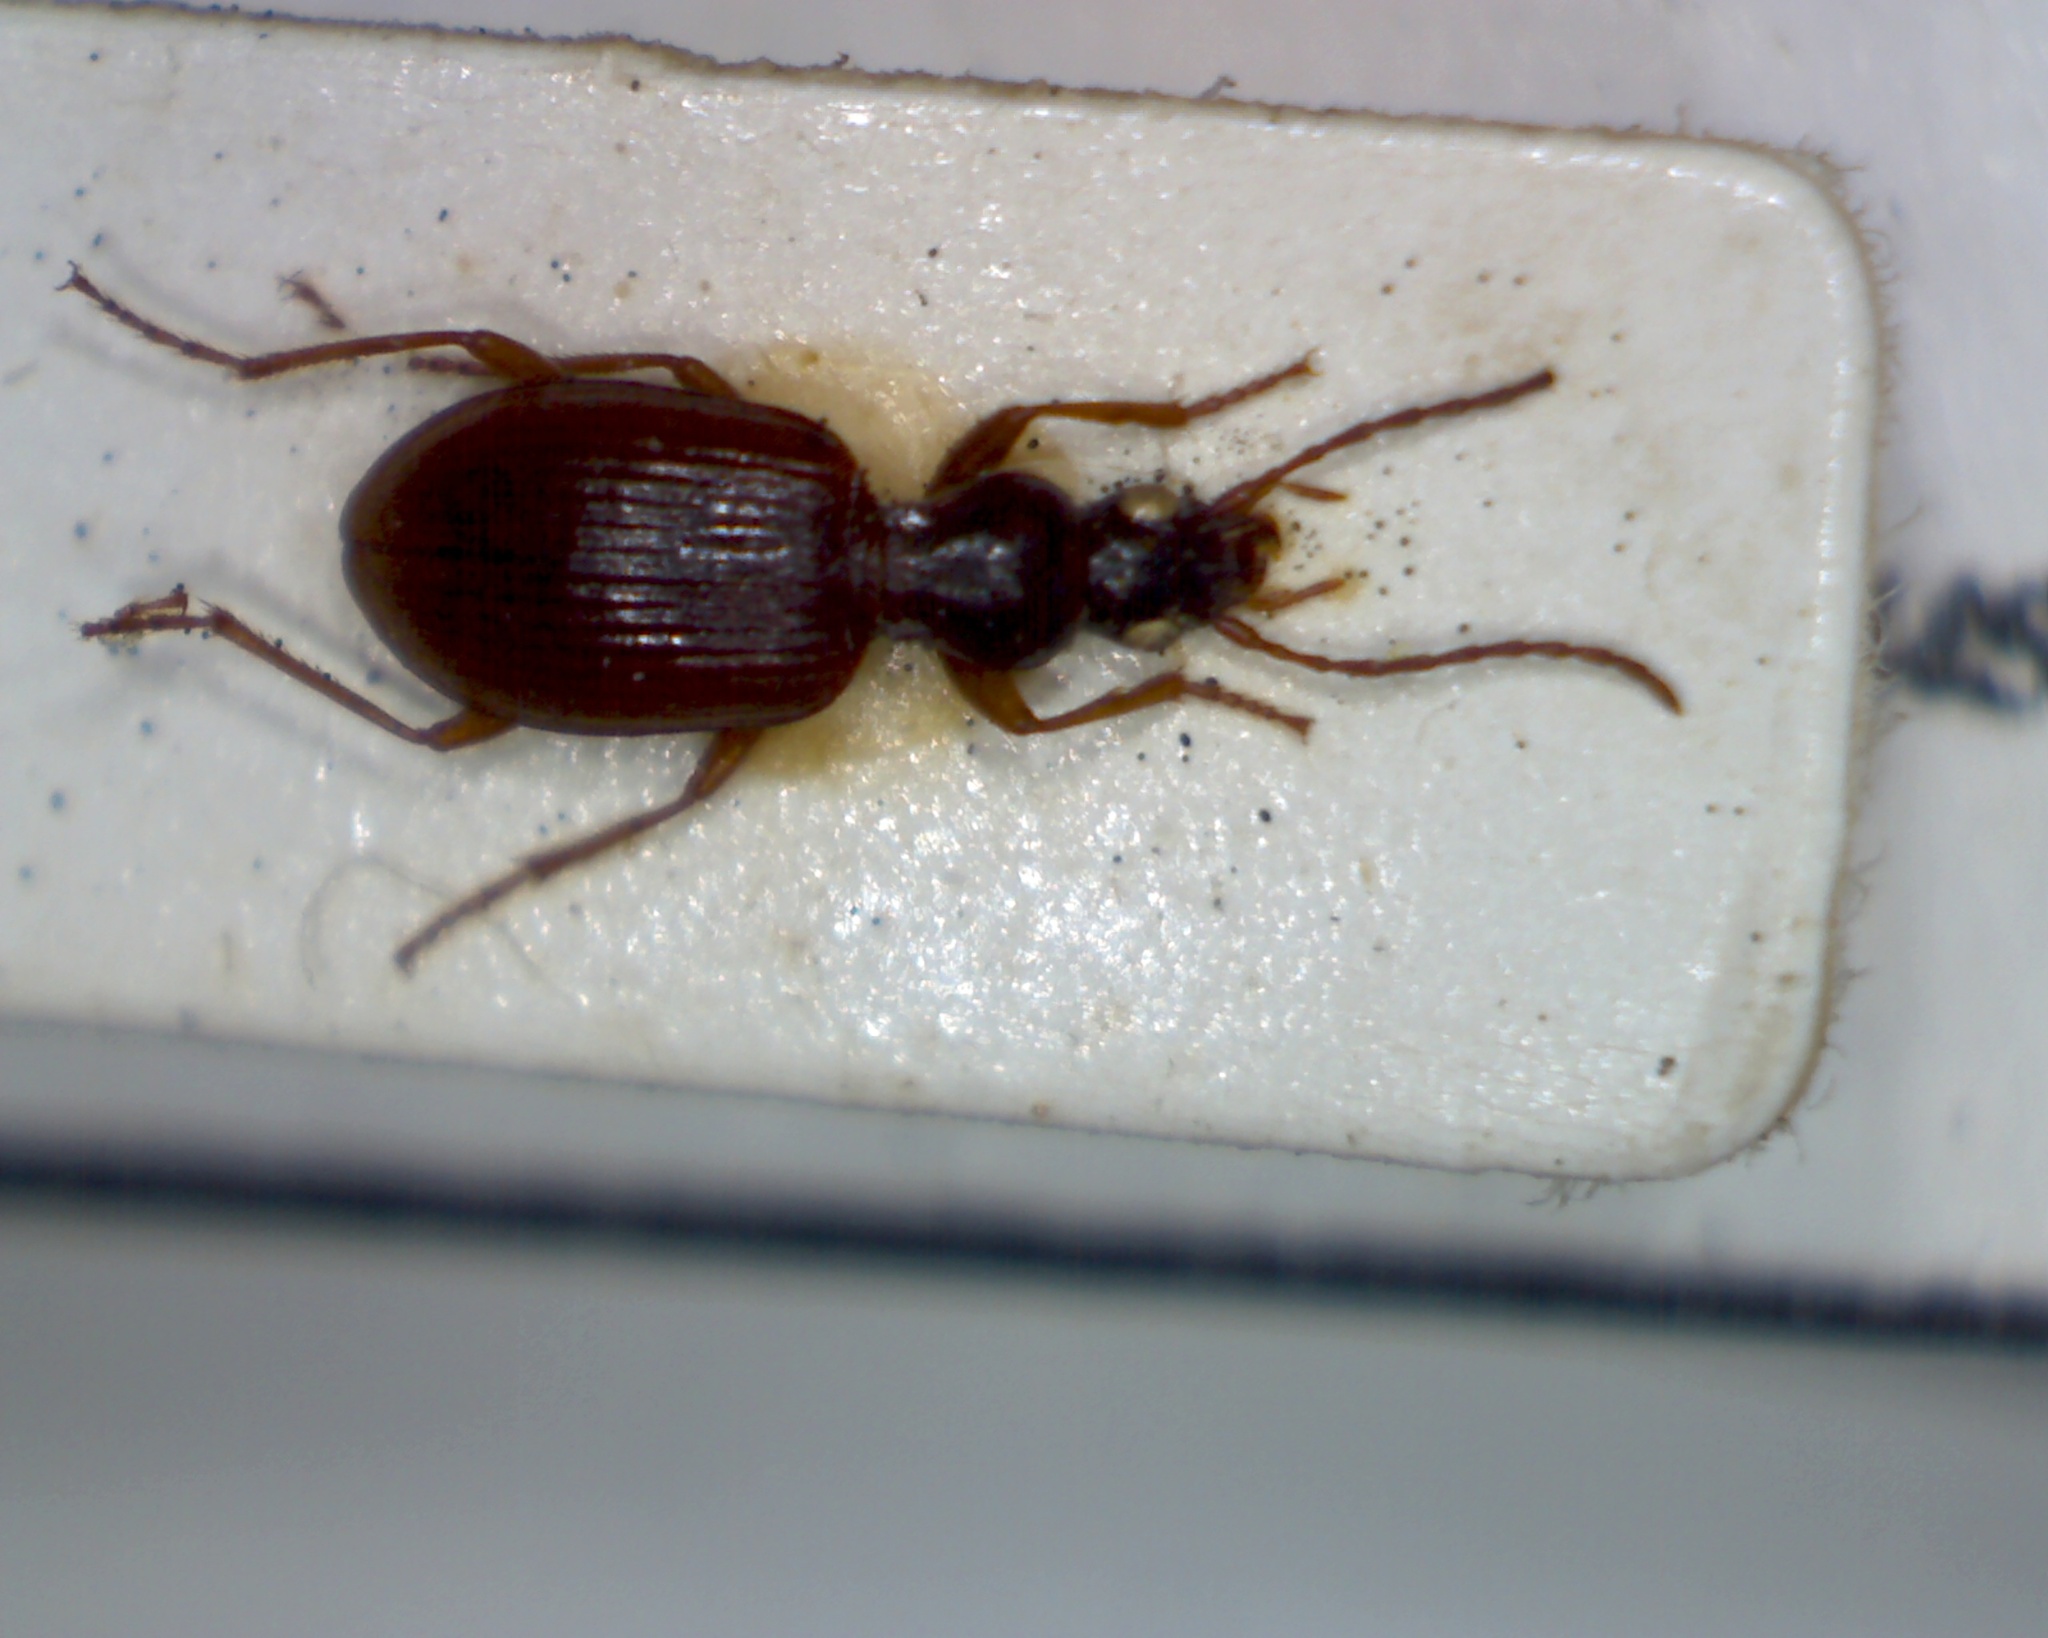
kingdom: Animalia
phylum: Arthropoda
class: Insecta
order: Coleoptera
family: Carabidae
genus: Oxypselaphus
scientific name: Oxypselaphus obscurus
